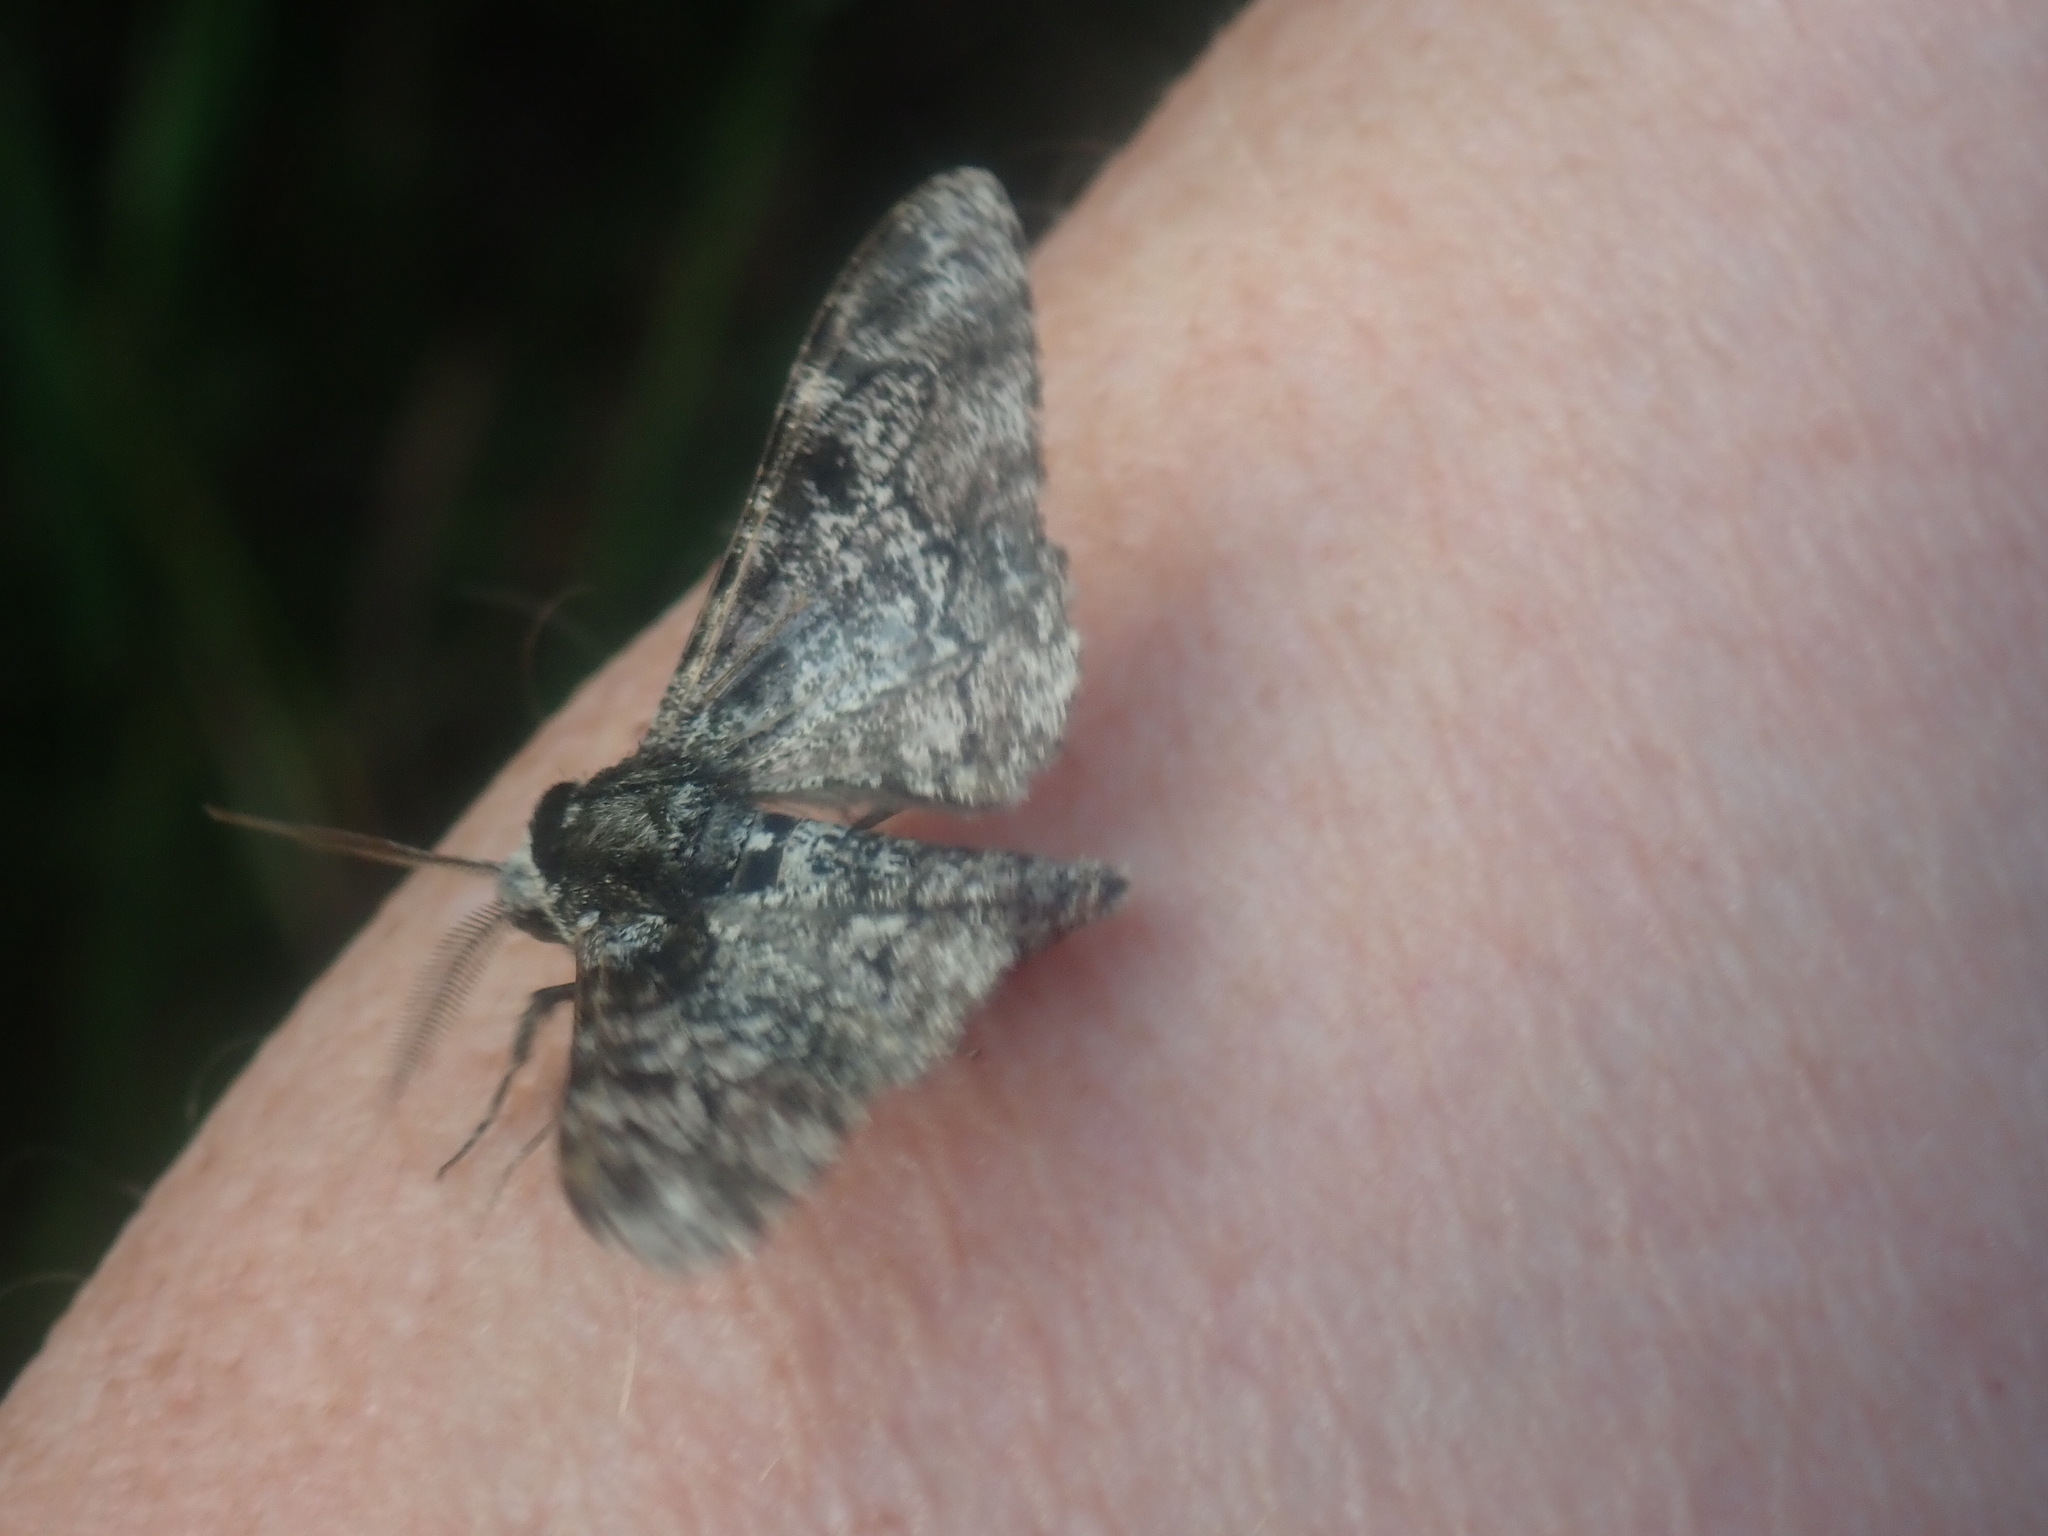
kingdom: Animalia
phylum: Arthropoda
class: Insecta
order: Lepidoptera
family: Geometridae
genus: Biston
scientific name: Biston betularia
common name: Peppered moth
